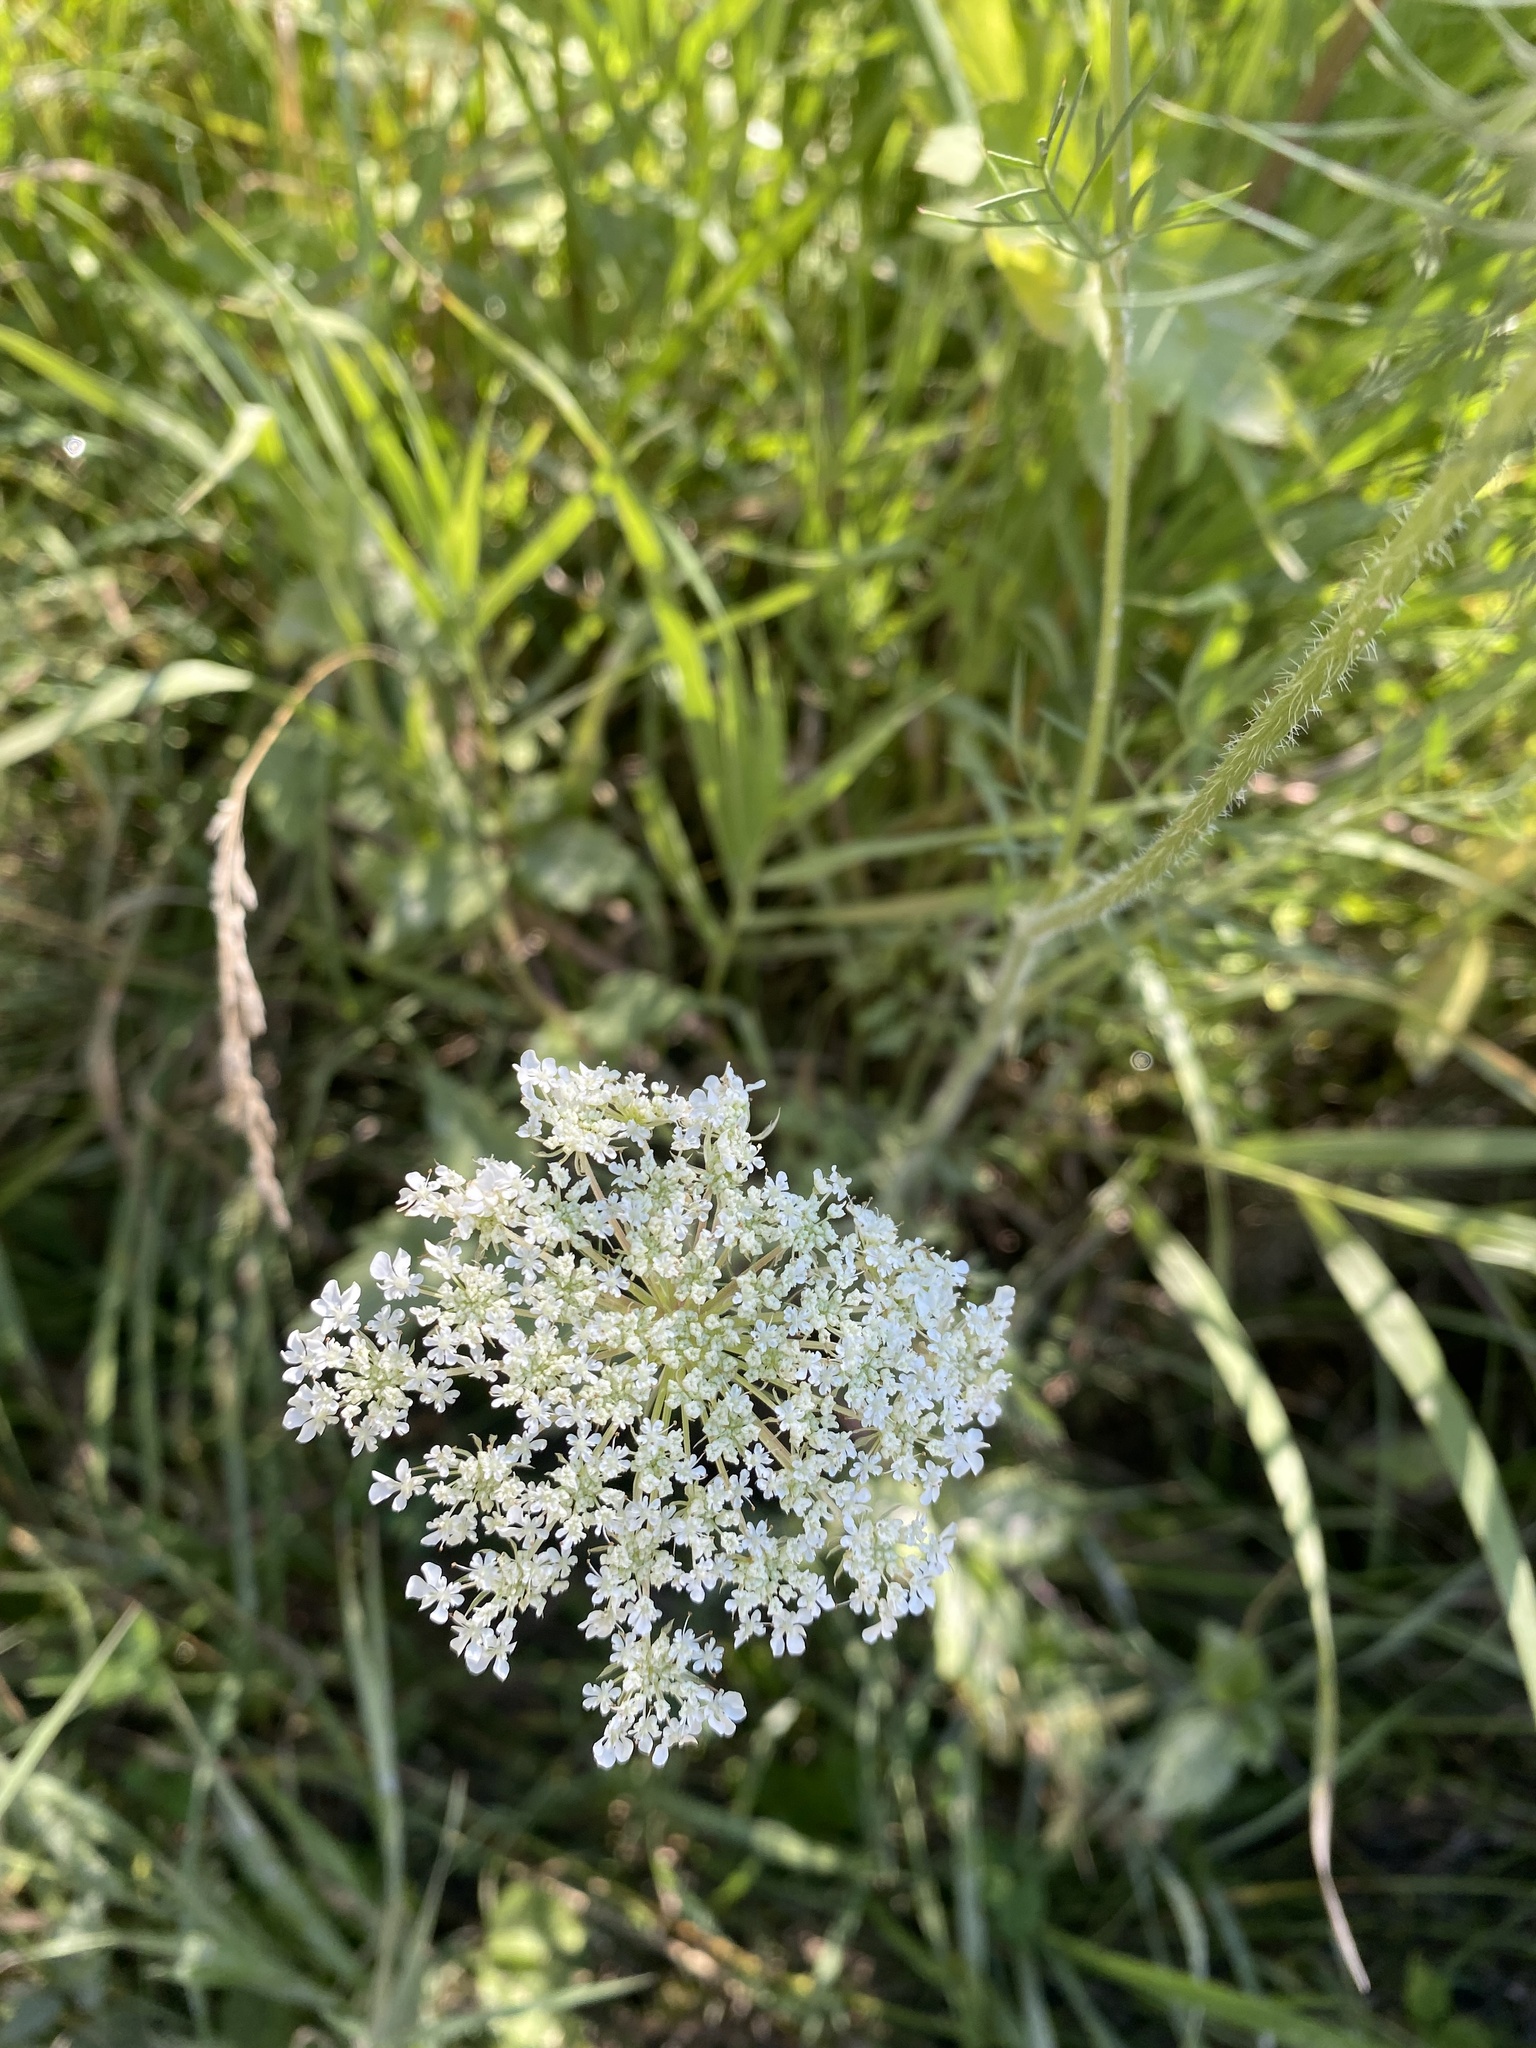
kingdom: Plantae
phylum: Tracheophyta
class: Magnoliopsida
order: Apiales
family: Apiaceae
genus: Daucus
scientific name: Daucus carota
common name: Wild carrot
